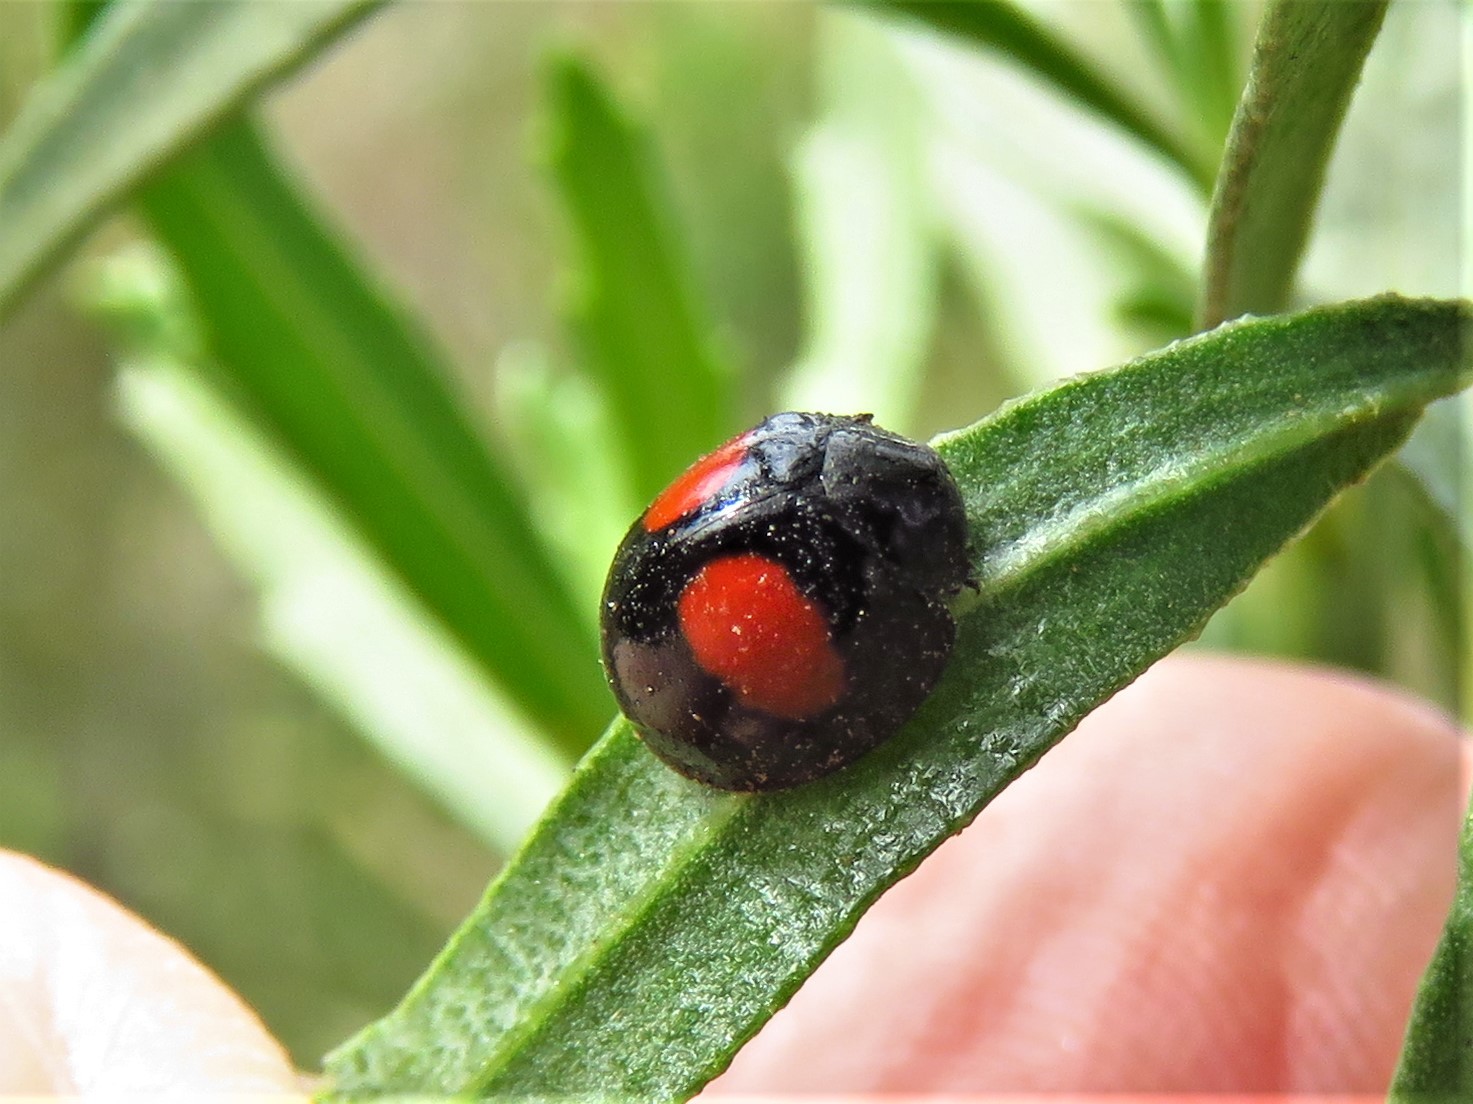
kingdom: Animalia
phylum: Arthropoda
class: Insecta
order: Coleoptera
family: Coccinellidae
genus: Chilocorus
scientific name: Chilocorus cacti
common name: Cactus lady beetle
